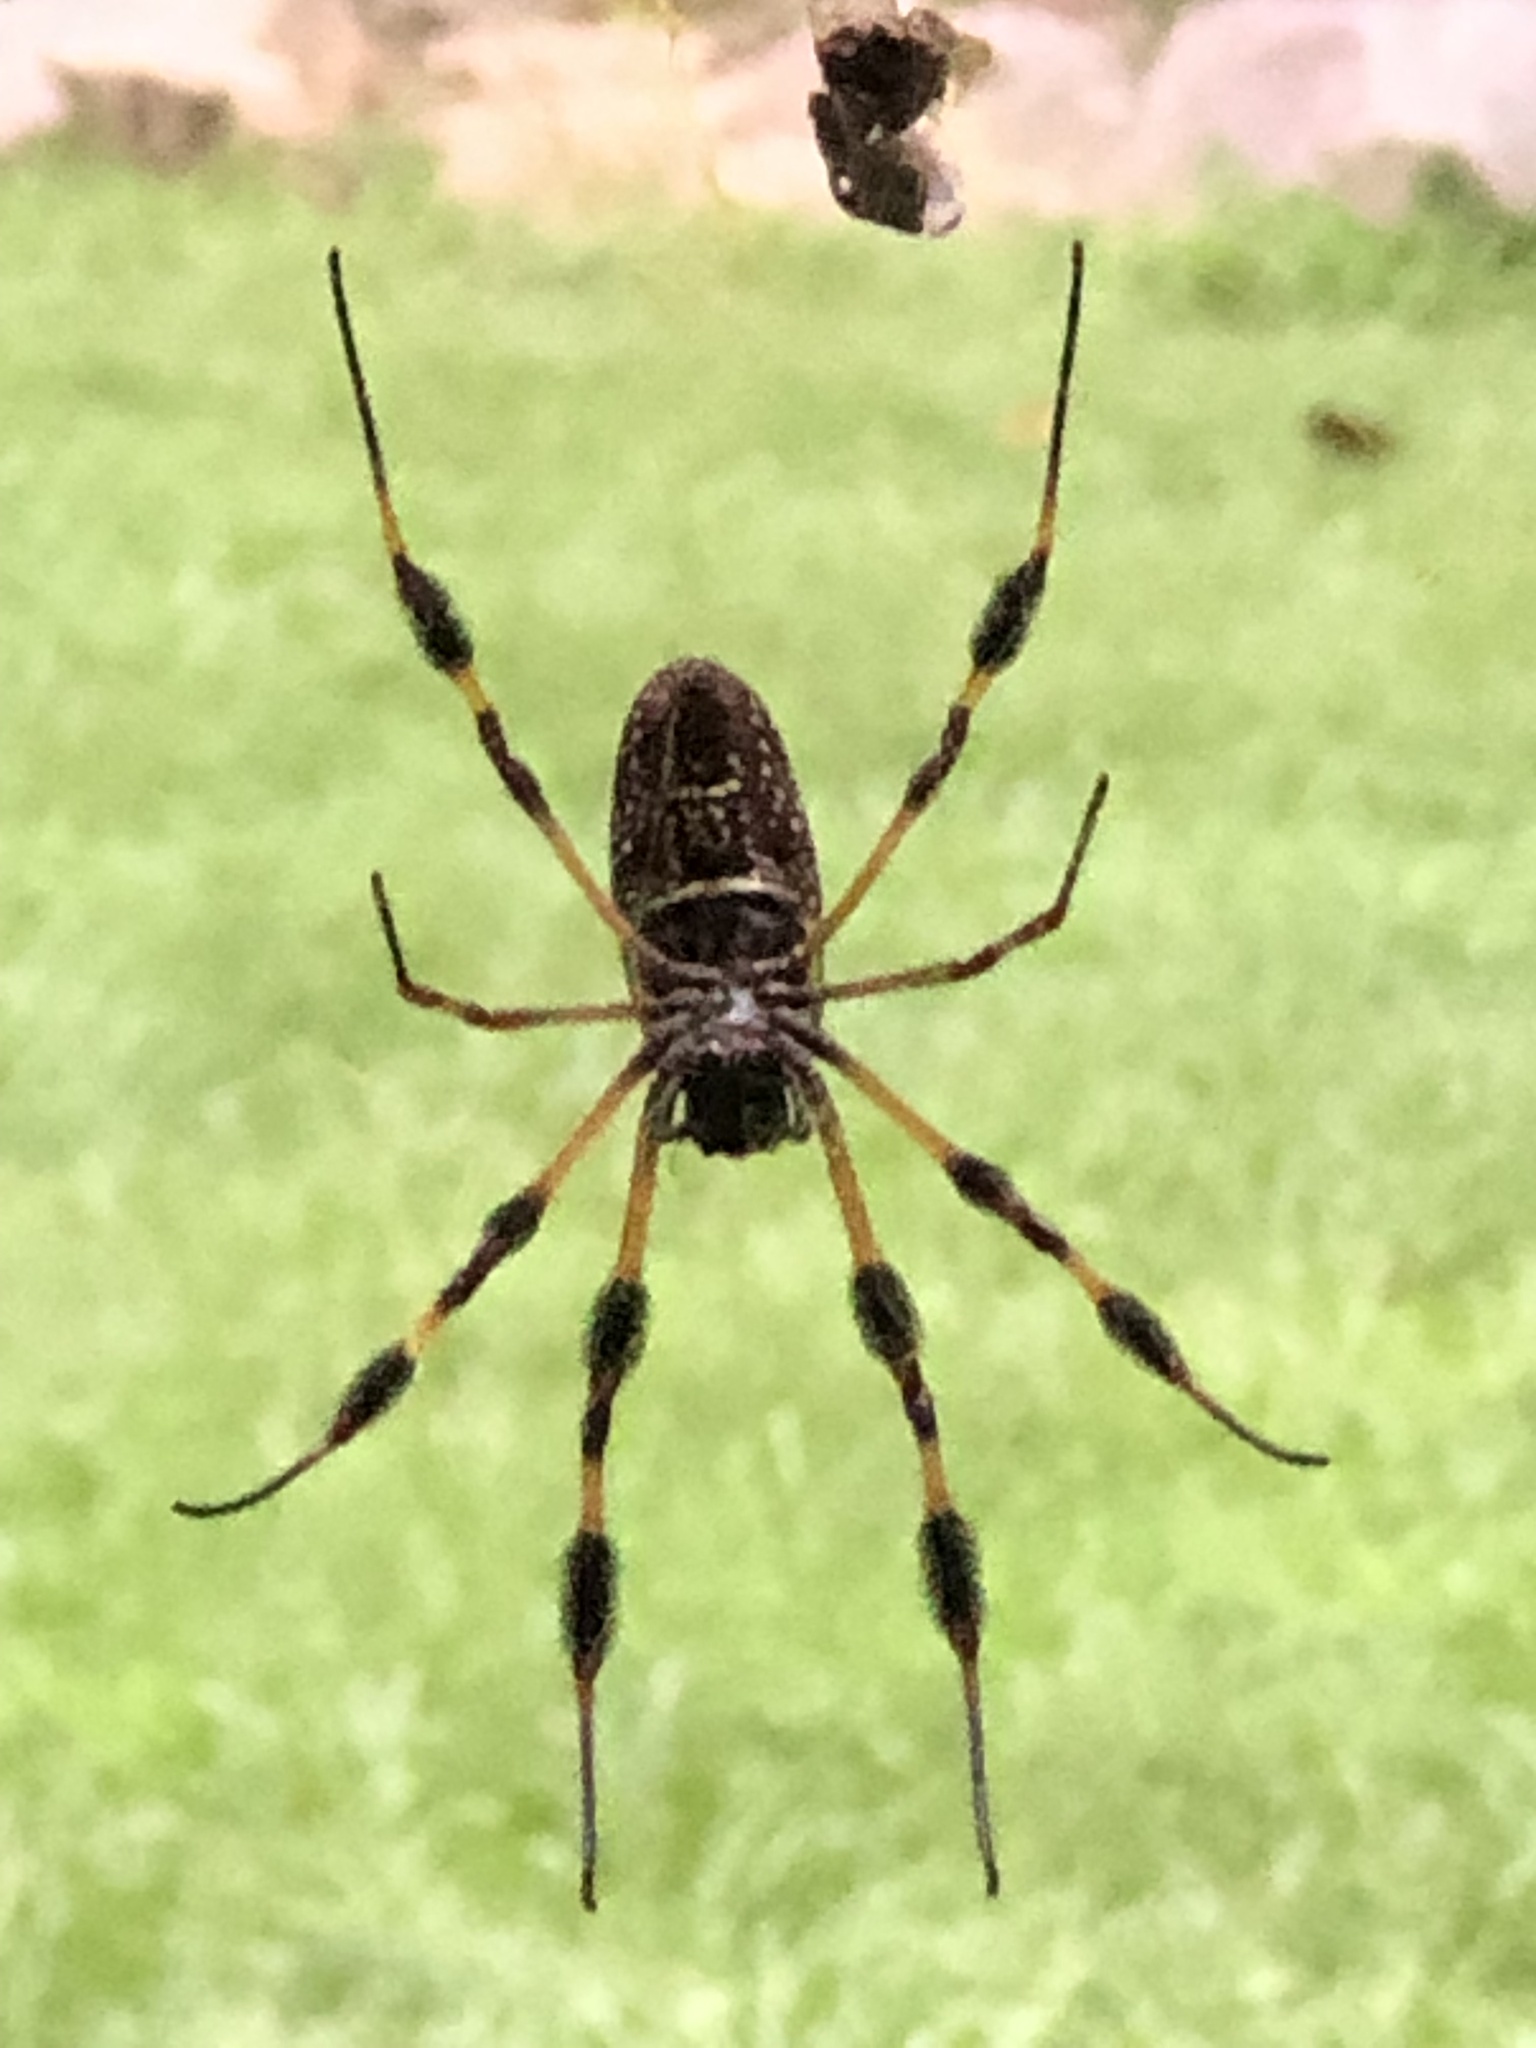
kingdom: Animalia
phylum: Arthropoda
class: Arachnida
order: Araneae
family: Araneidae
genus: Trichonephila
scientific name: Trichonephila clavipes
